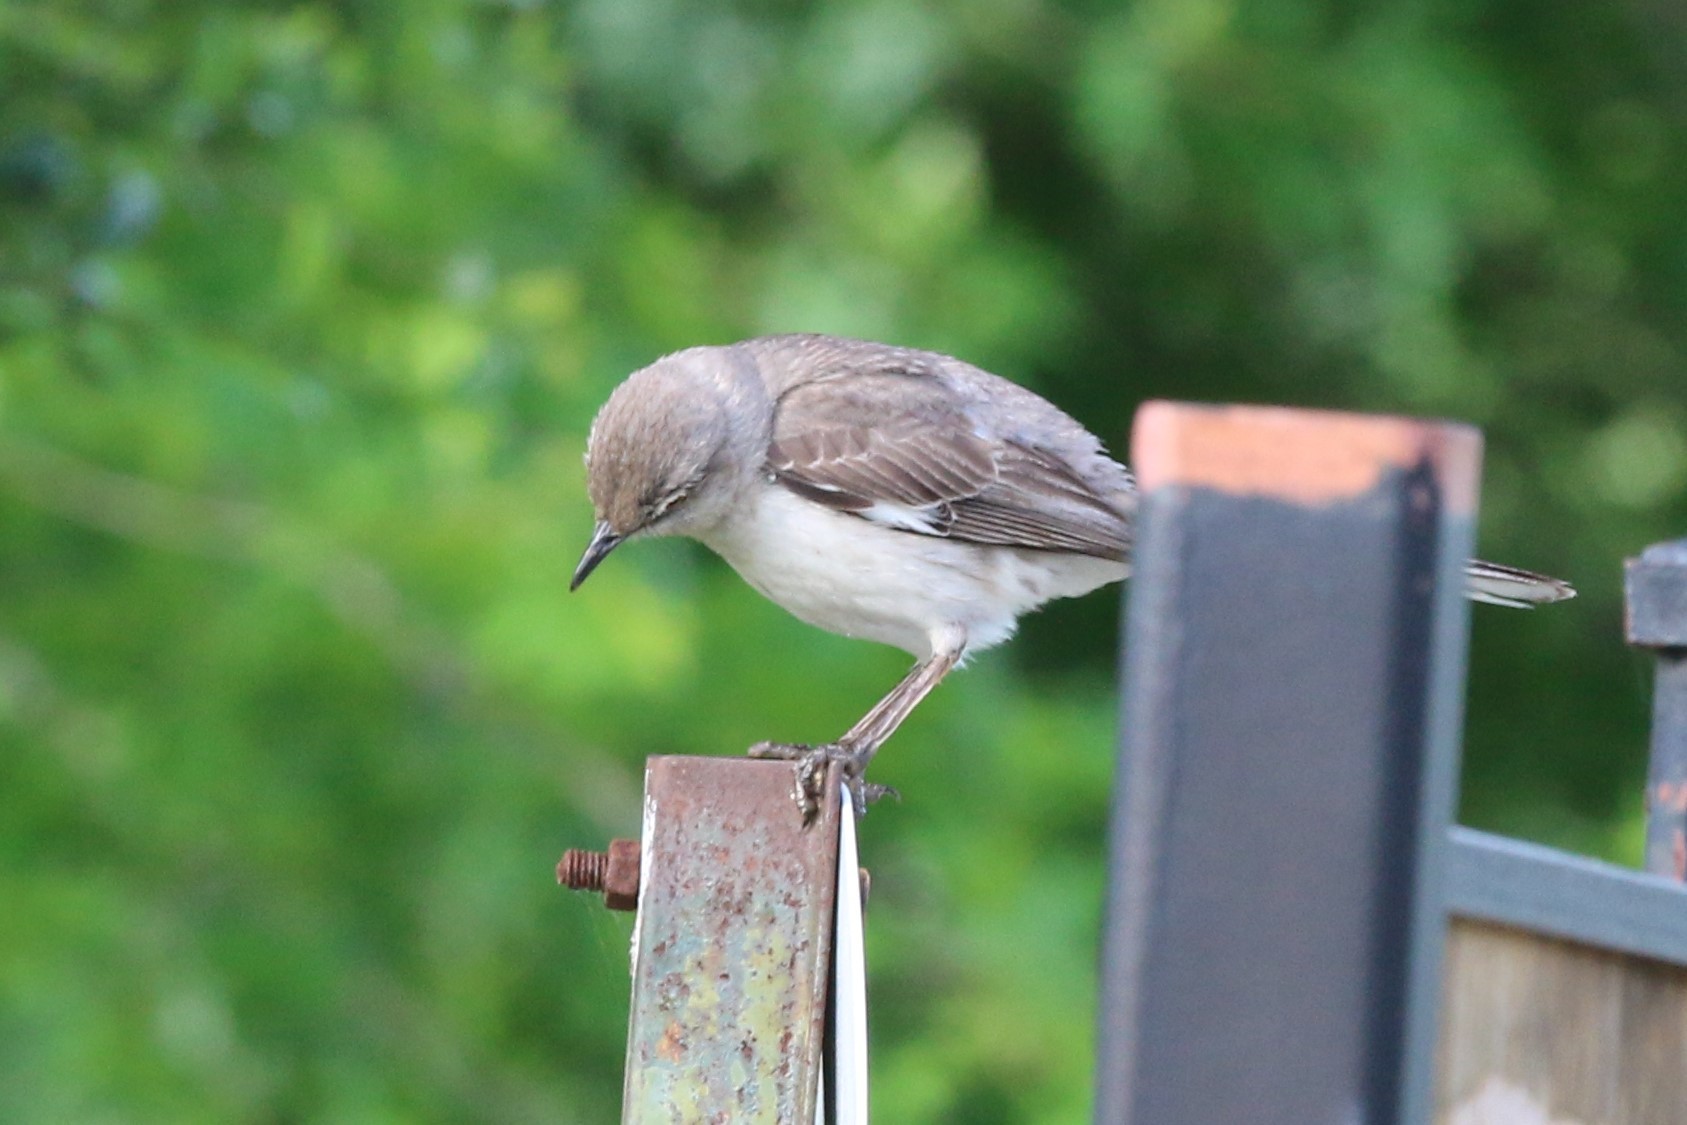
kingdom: Animalia
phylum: Chordata
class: Aves
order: Passeriformes
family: Mimidae
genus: Mimus
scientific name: Mimus polyglottos
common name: Northern mockingbird
